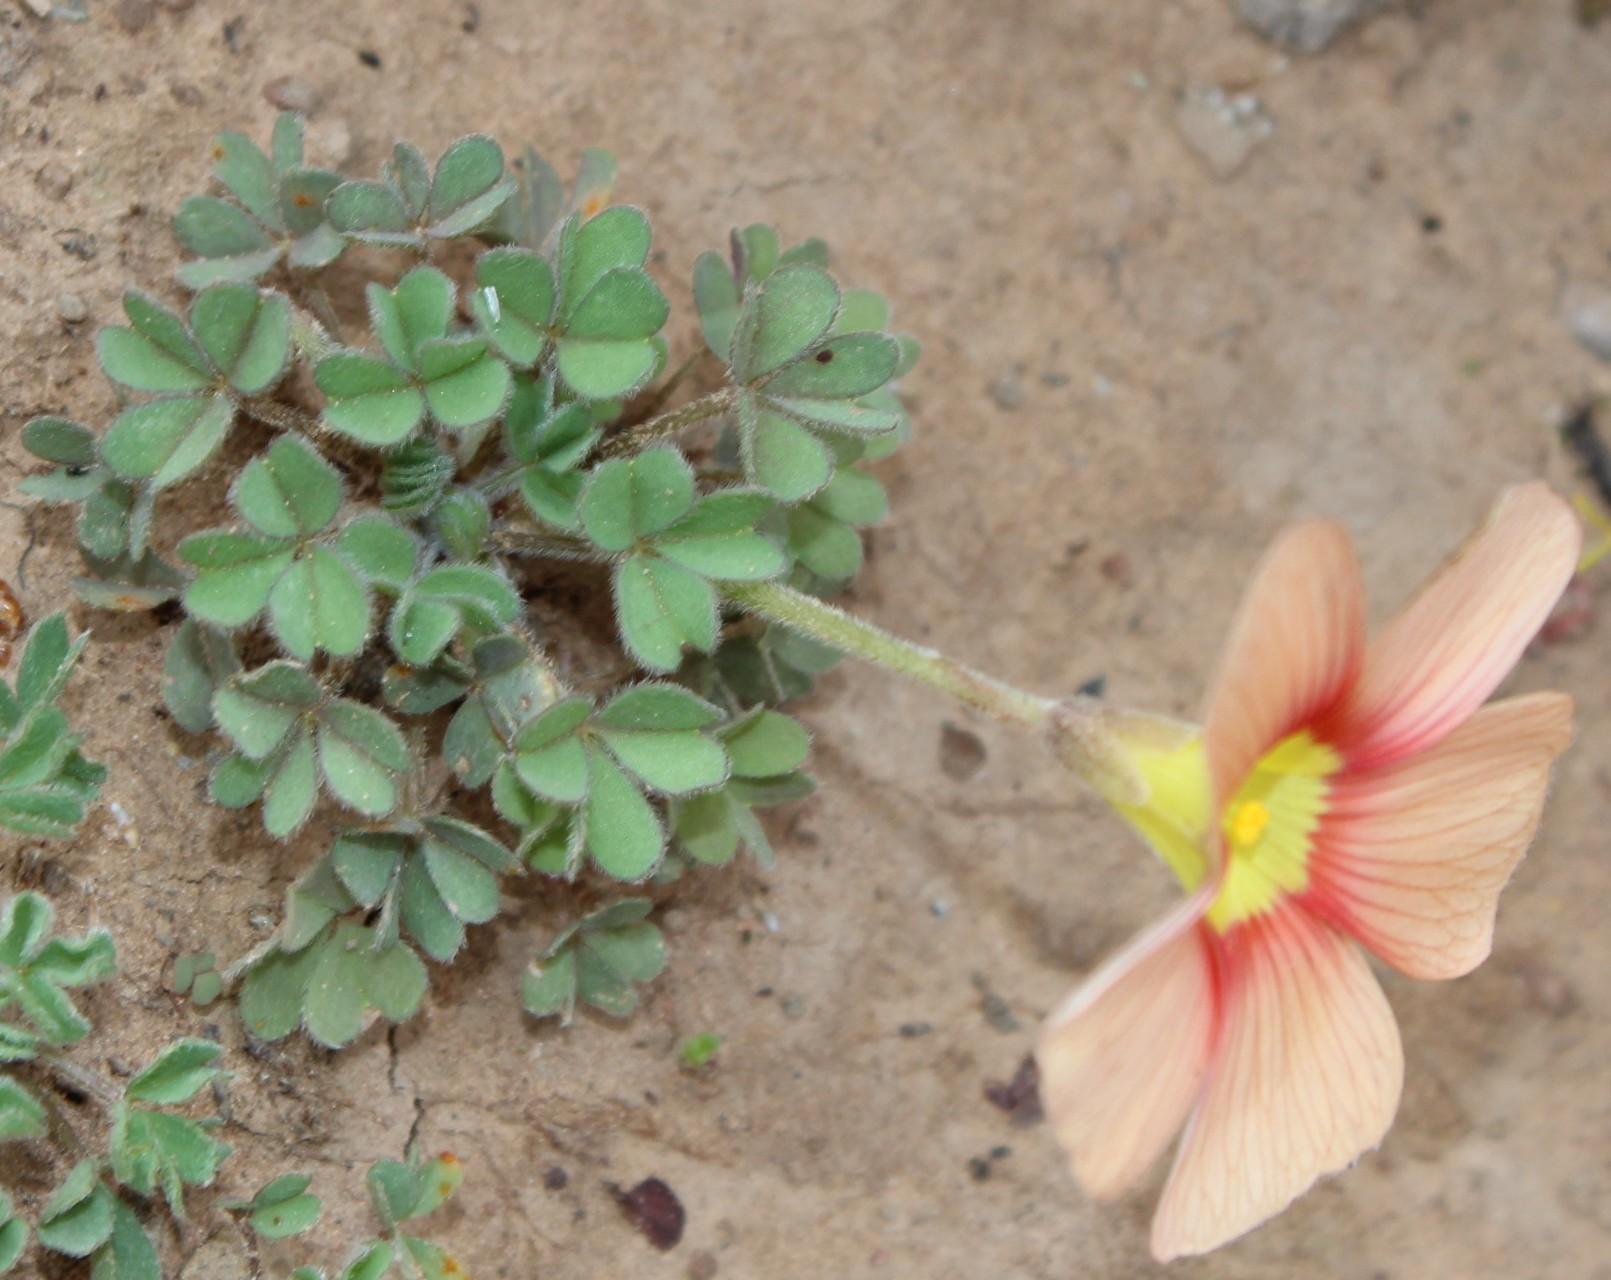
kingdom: Plantae
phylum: Tracheophyta
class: Magnoliopsida
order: Oxalidales
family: Oxalidaceae
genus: Oxalis
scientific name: Oxalis obtusa
